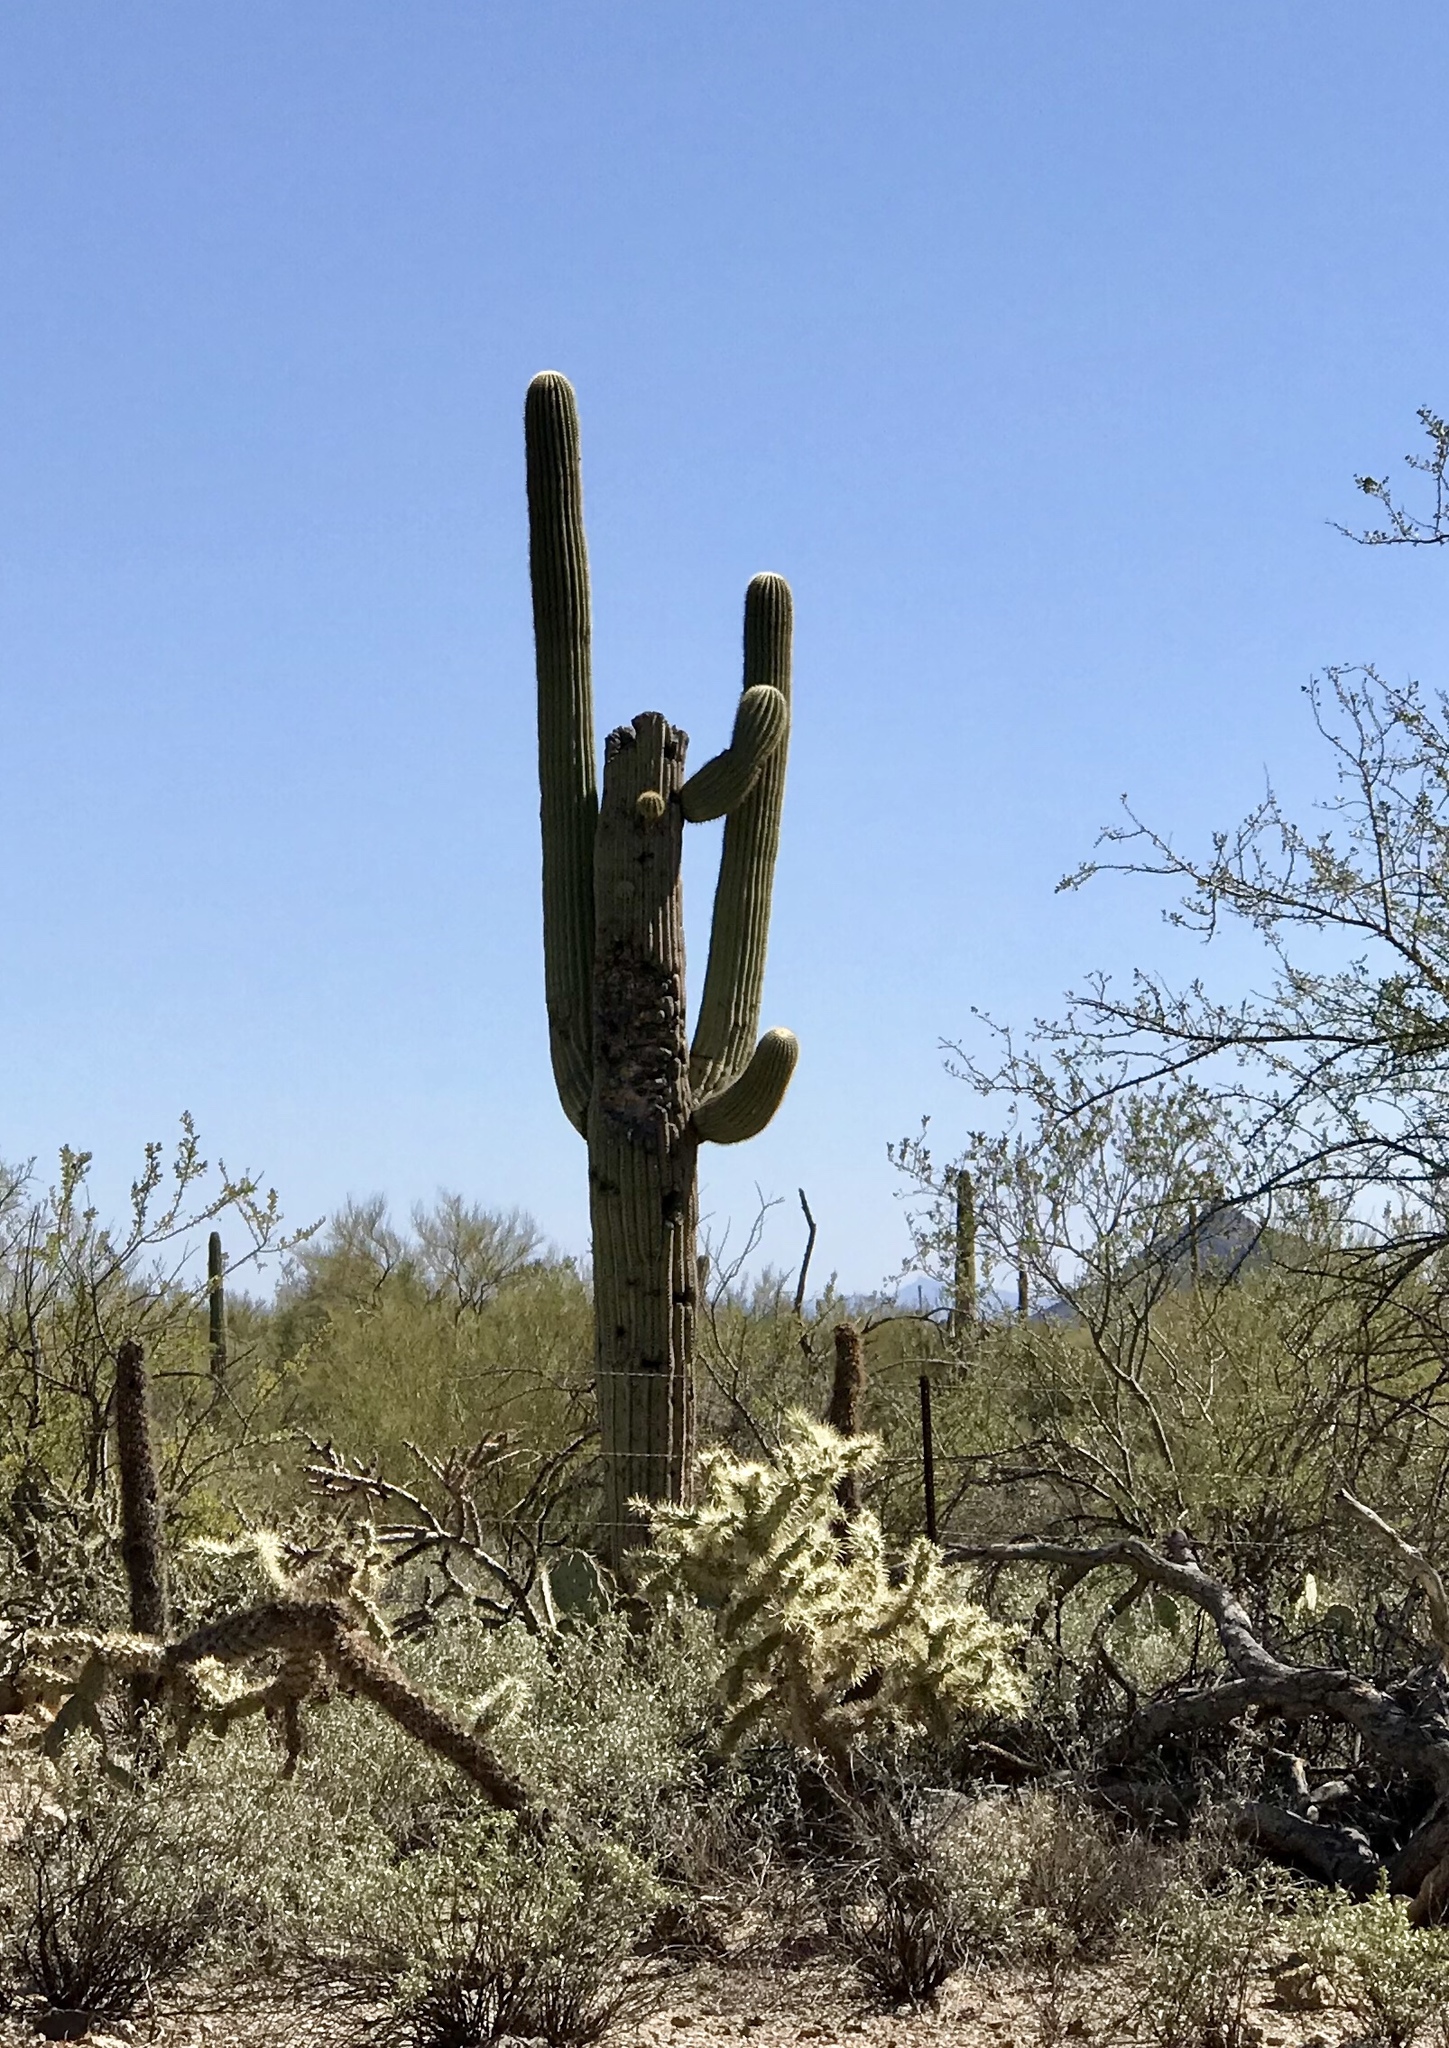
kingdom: Plantae
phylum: Tracheophyta
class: Magnoliopsida
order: Caryophyllales
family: Cactaceae
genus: Carnegiea
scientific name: Carnegiea gigantea
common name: Saguaro
